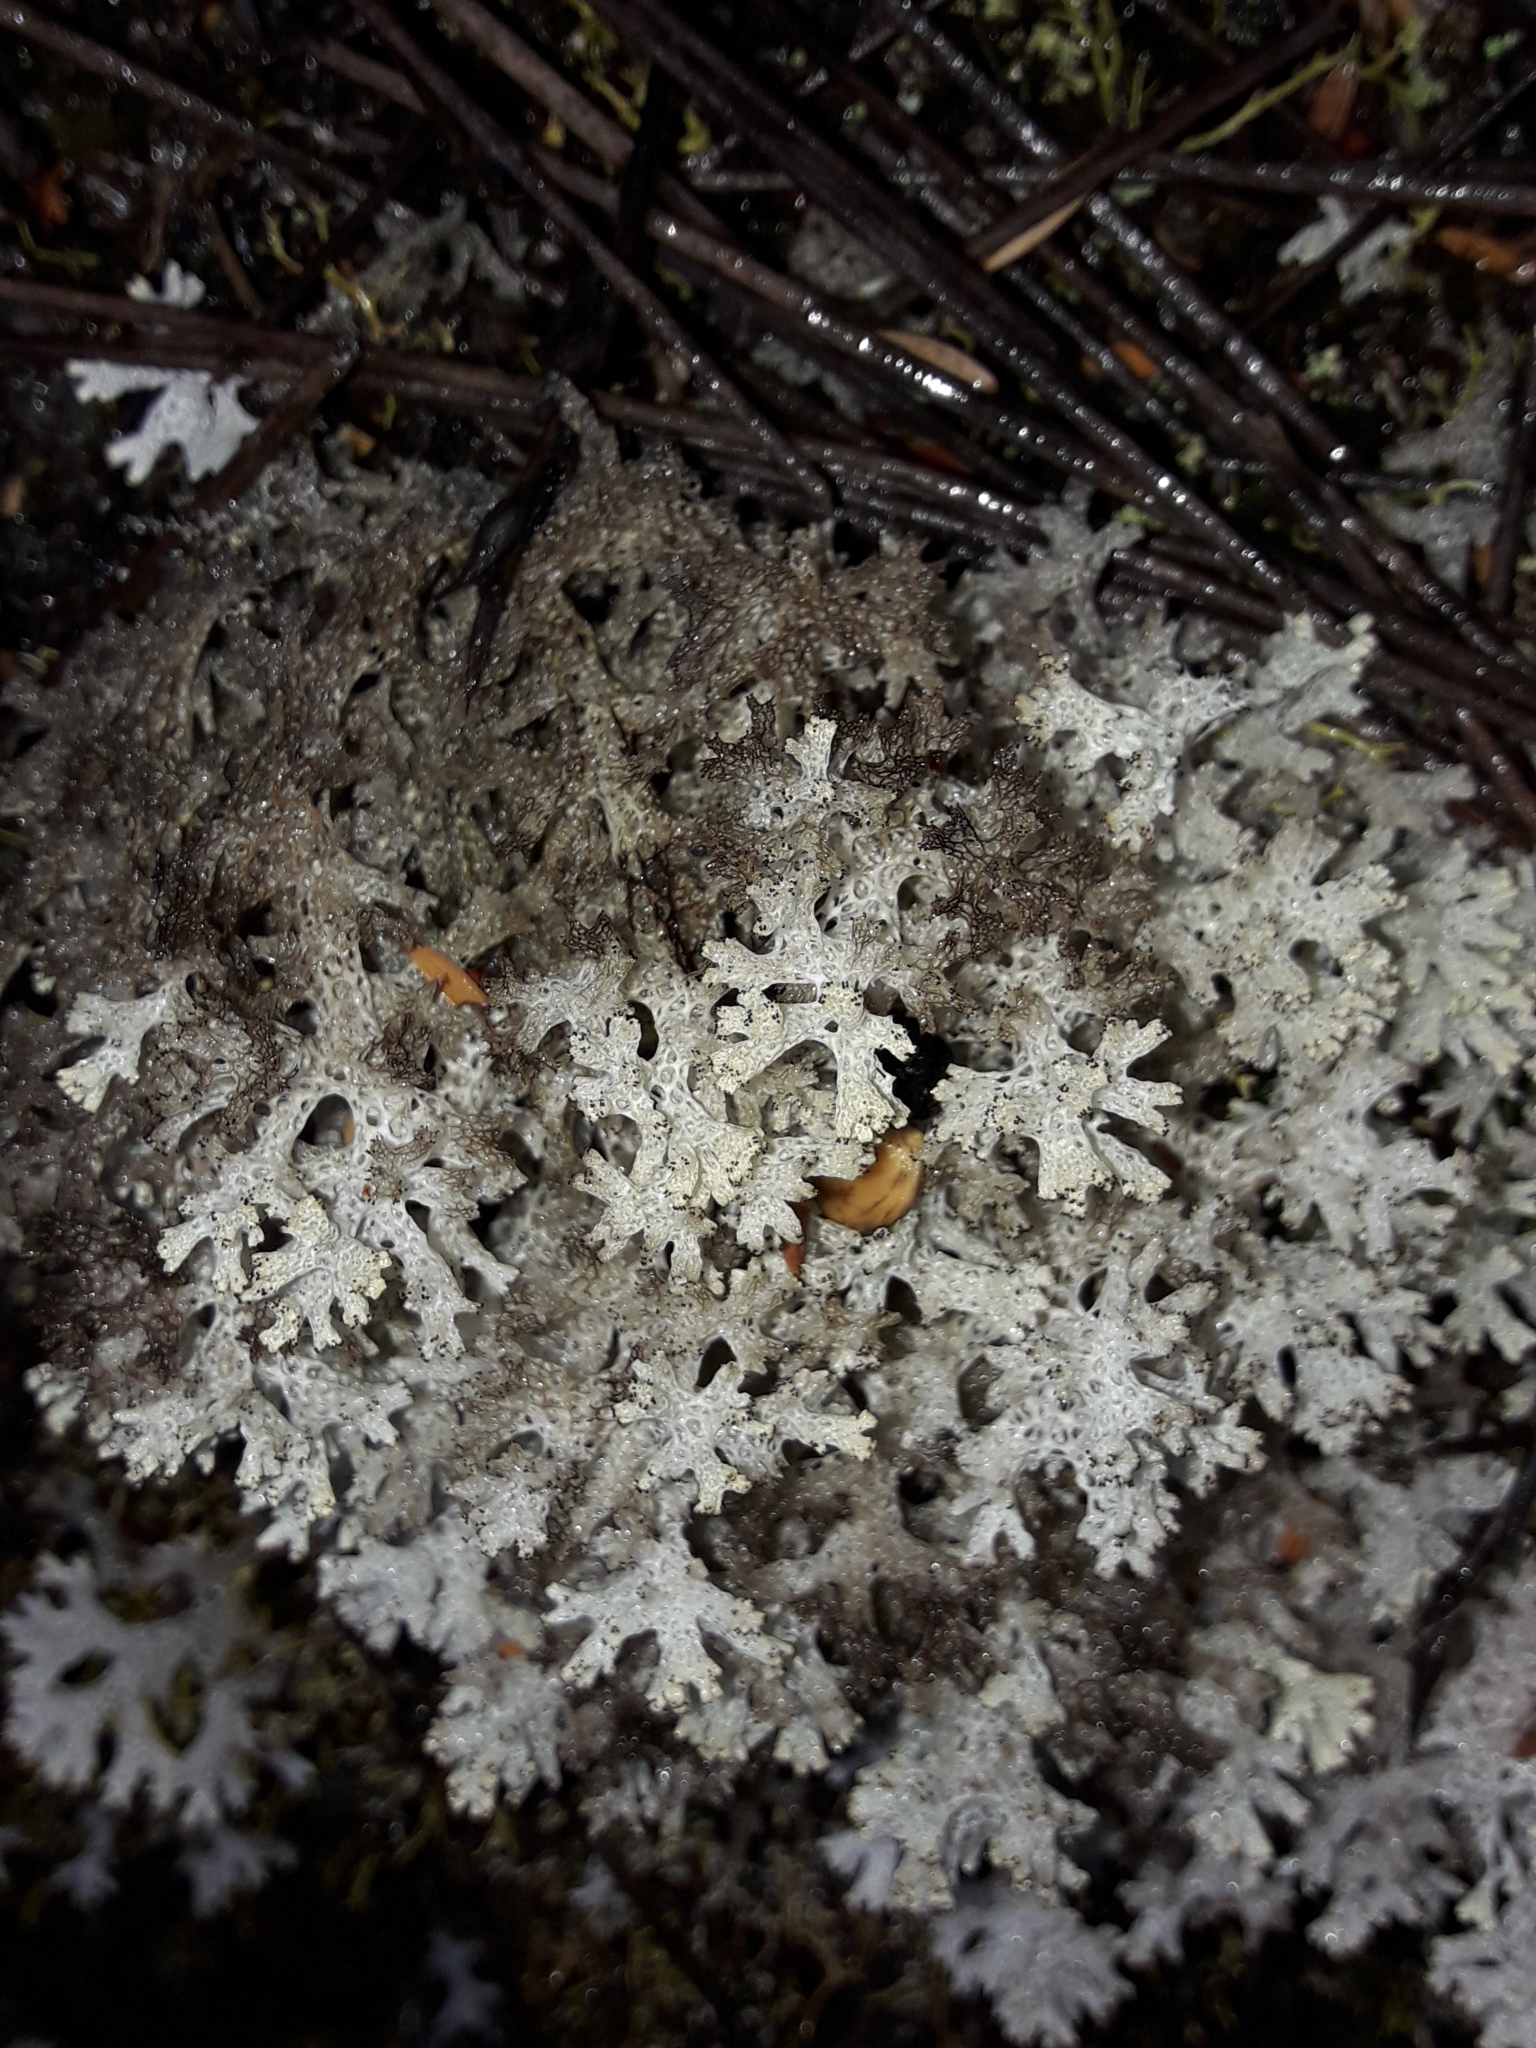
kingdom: Fungi
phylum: Ascomycota
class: Lecanoromycetes
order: Lecanorales
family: Cladoniaceae
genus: Pulchrocladia
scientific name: Pulchrocladia retipora
